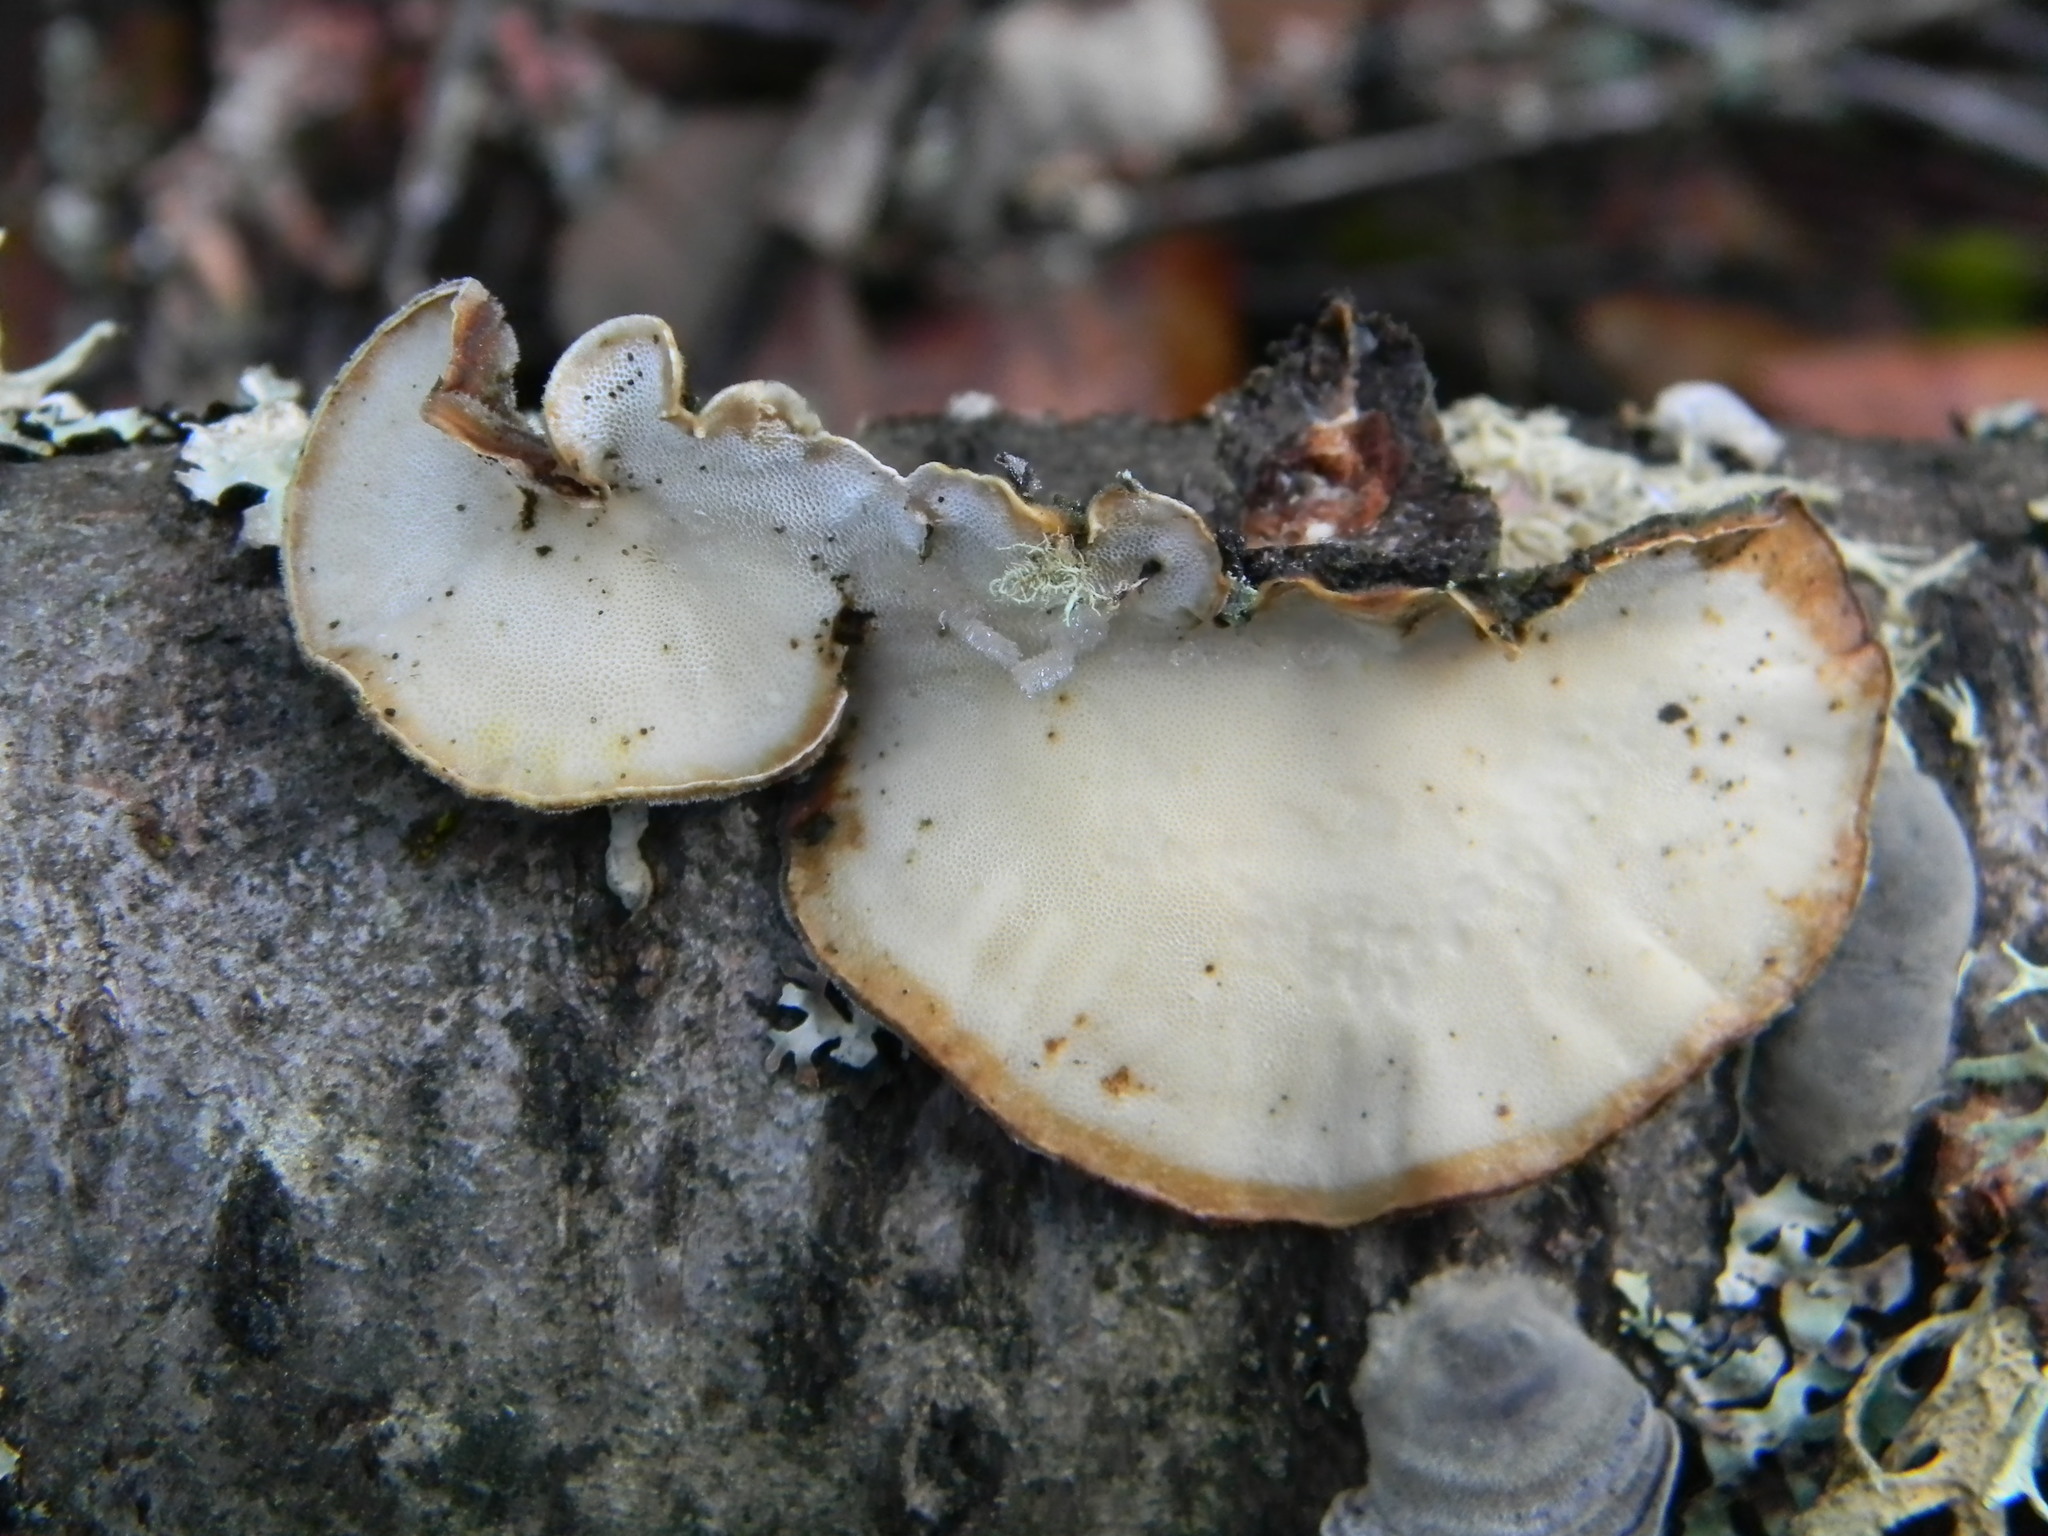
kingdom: Fungi
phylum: Basidiomycota
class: Agaricomycetes
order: Polyporales
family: Polyporaceae
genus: Trametes
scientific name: Trametes versicolor
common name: Turkeytail
